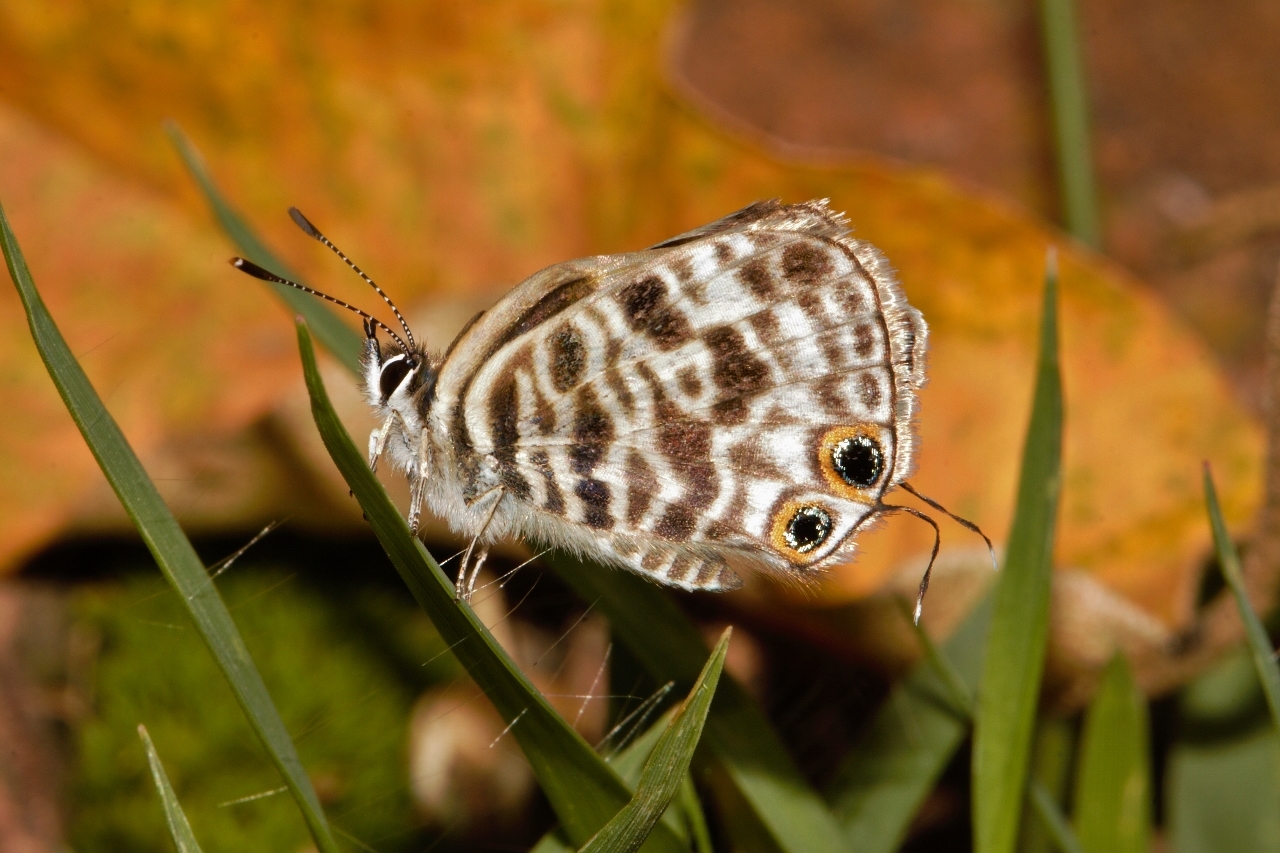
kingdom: Animalia
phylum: Arthropoda
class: Insecta
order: Lepidoptera
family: Lycaenidae
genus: Leptotes
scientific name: Leptotes
